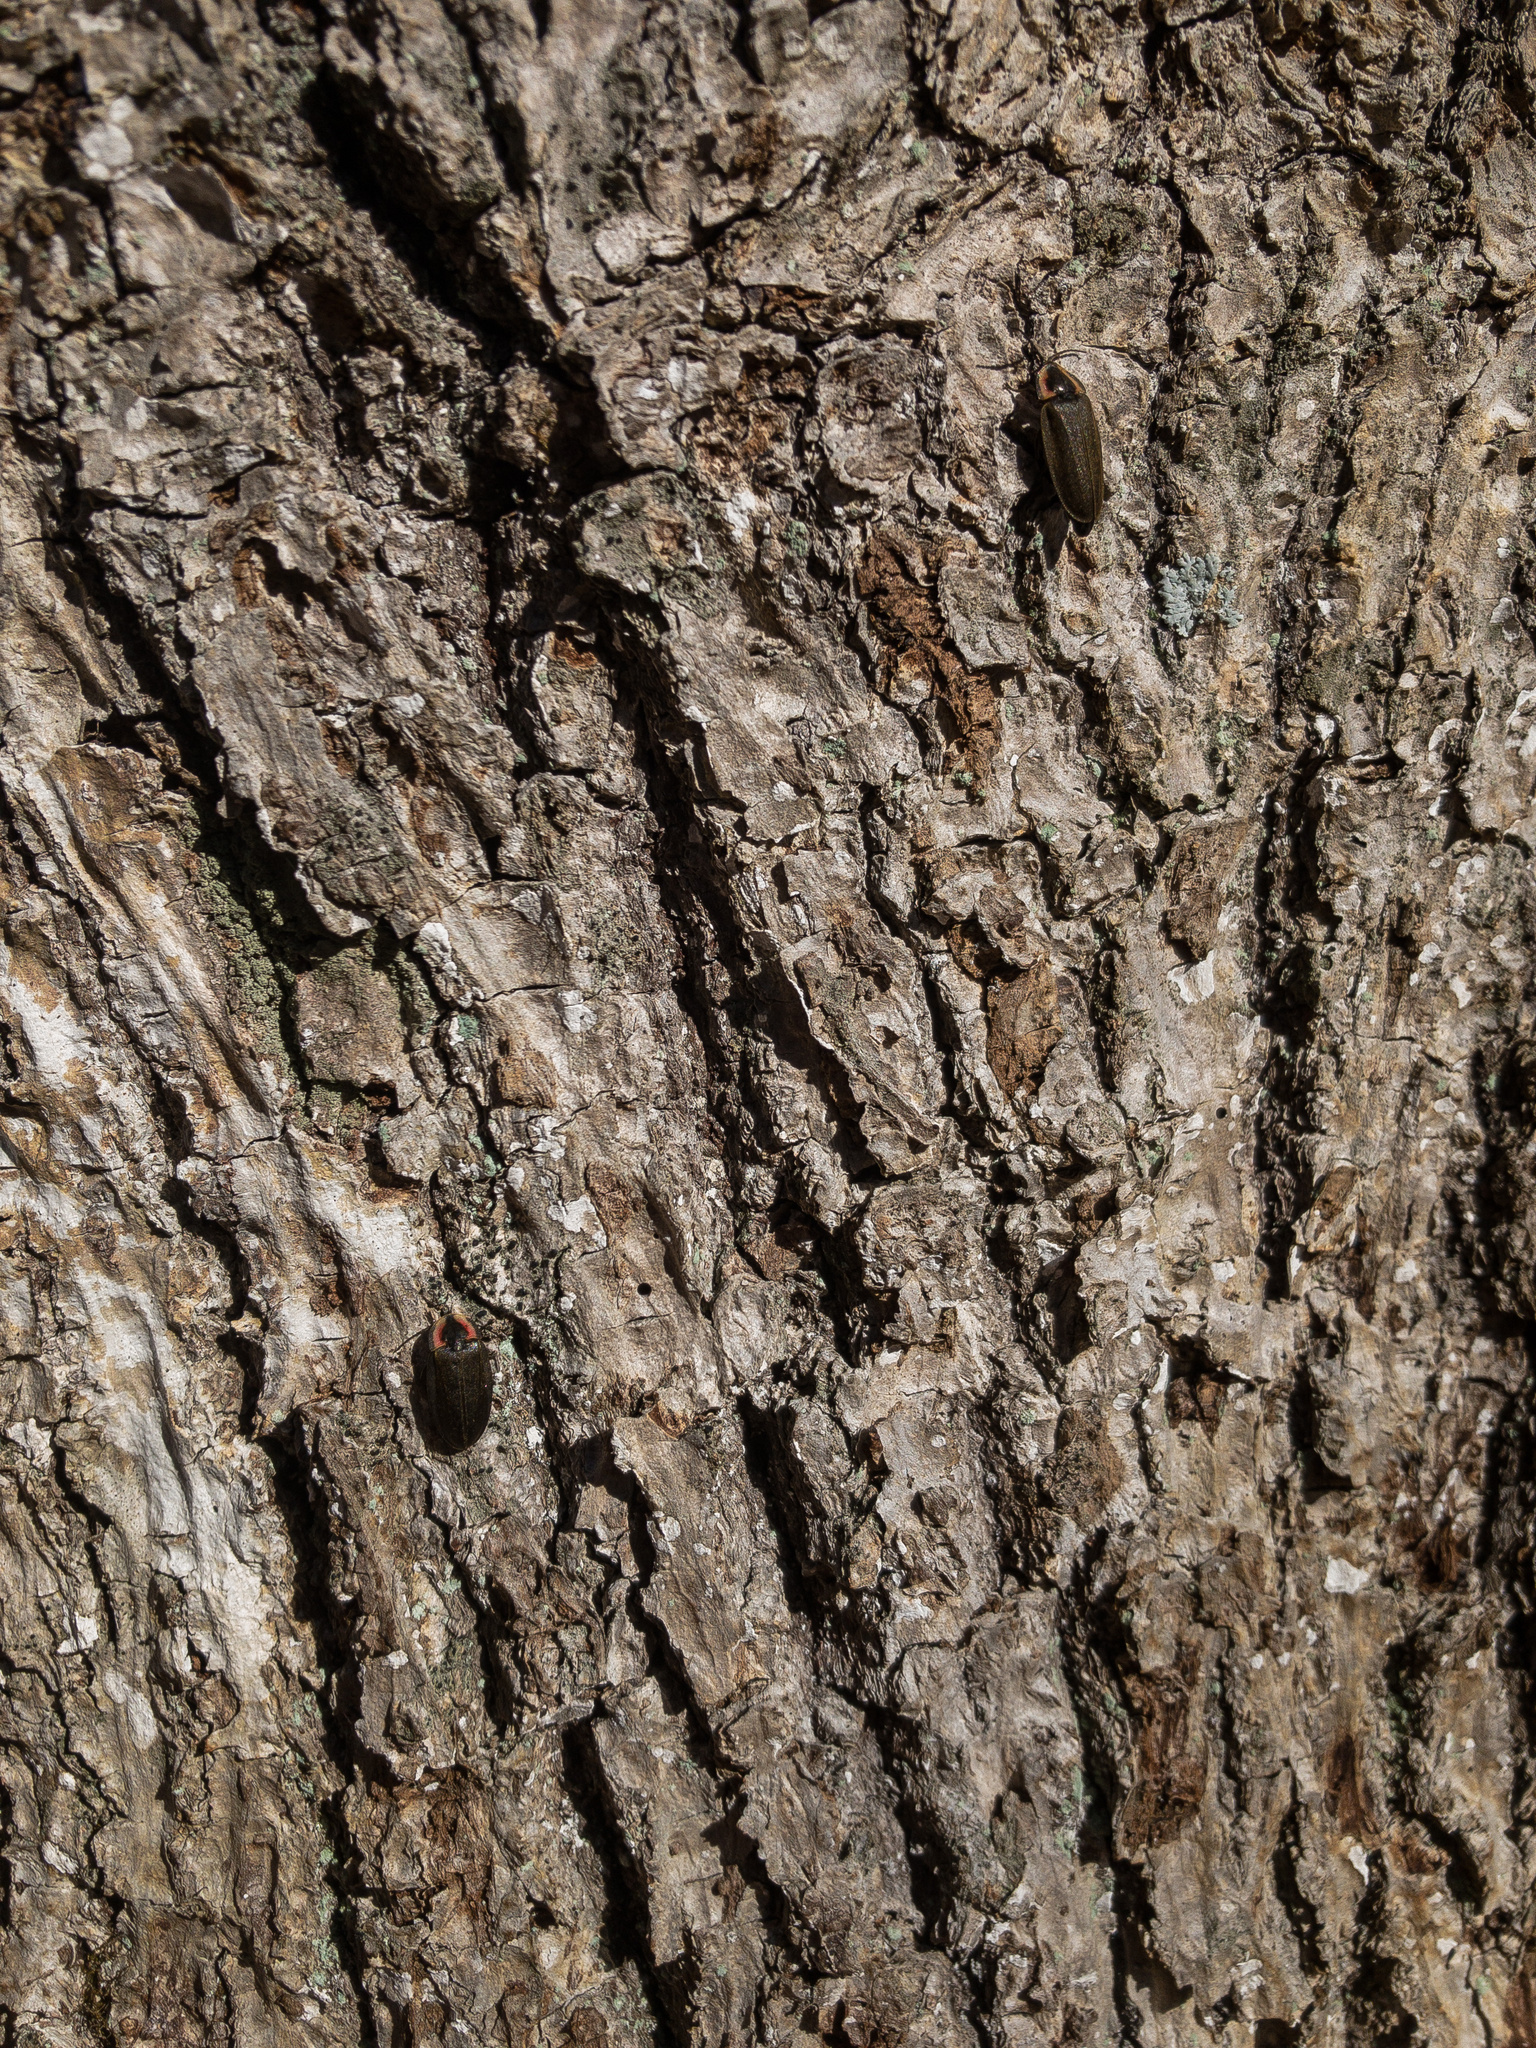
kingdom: Animalia
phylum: Arthropoda
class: Insecta
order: Coleoptera
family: Lampyridae
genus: Photinus
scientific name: Photinus corrusca
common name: Winter firefly
